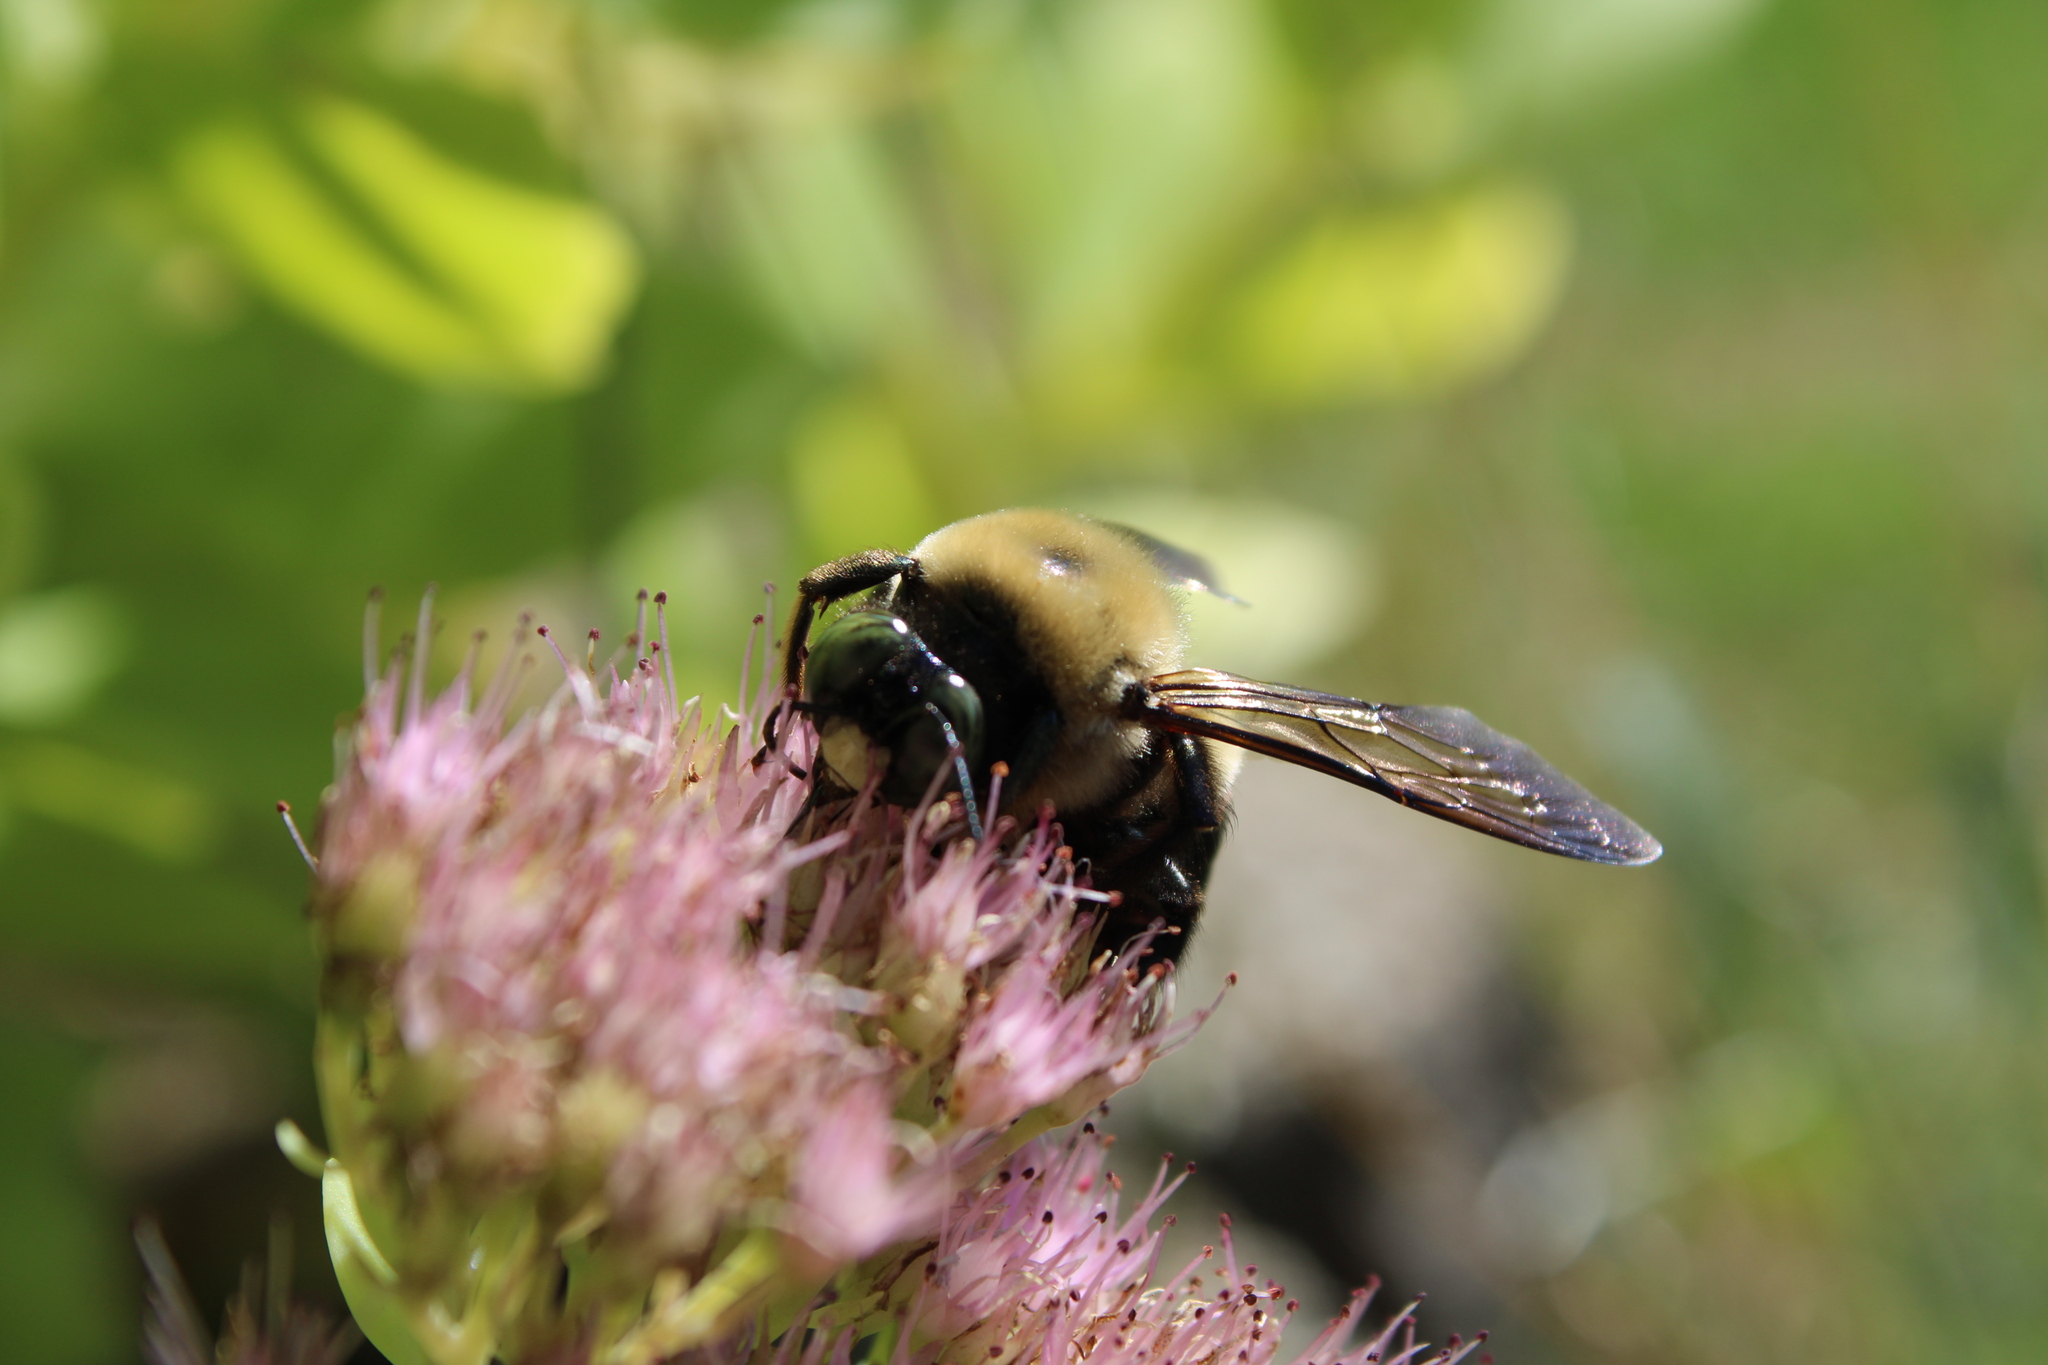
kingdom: Animalia
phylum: Arthropoda
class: Insecta
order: Hymenoptera
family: Apidae
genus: Xylocopa
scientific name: Xylocopa virginica
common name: Carpenter bee
